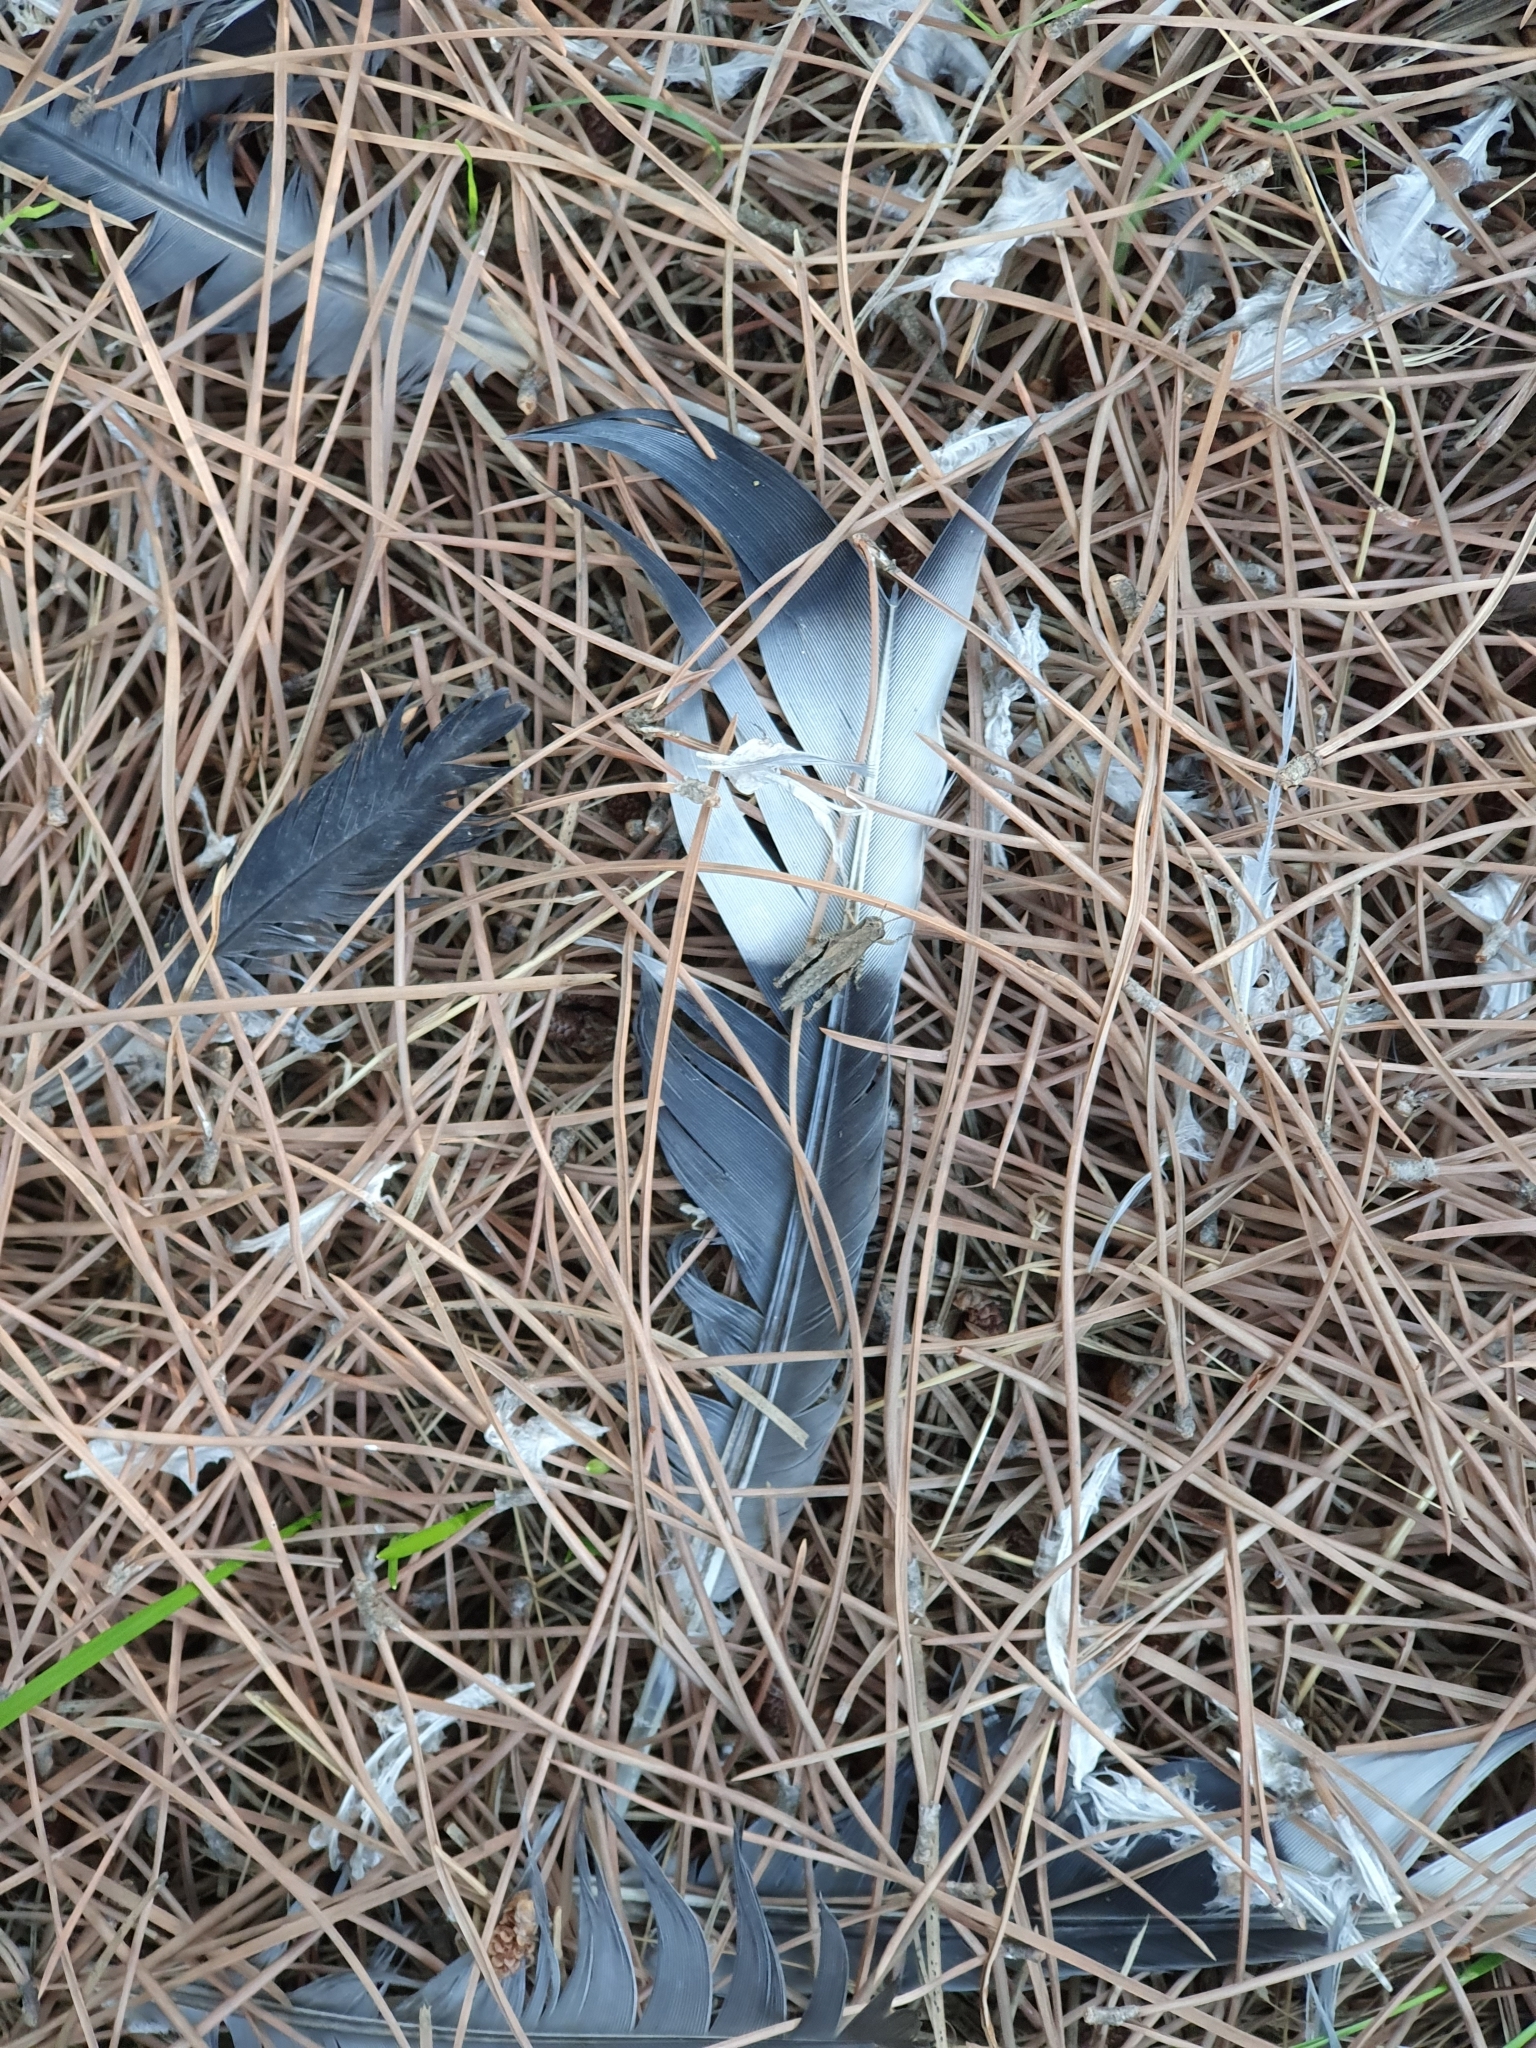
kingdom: Animalia
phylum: Chordata
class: Aves
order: Columbiformes
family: Columbidae
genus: Columba
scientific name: Columba palumbus
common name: Common wood pigeon
